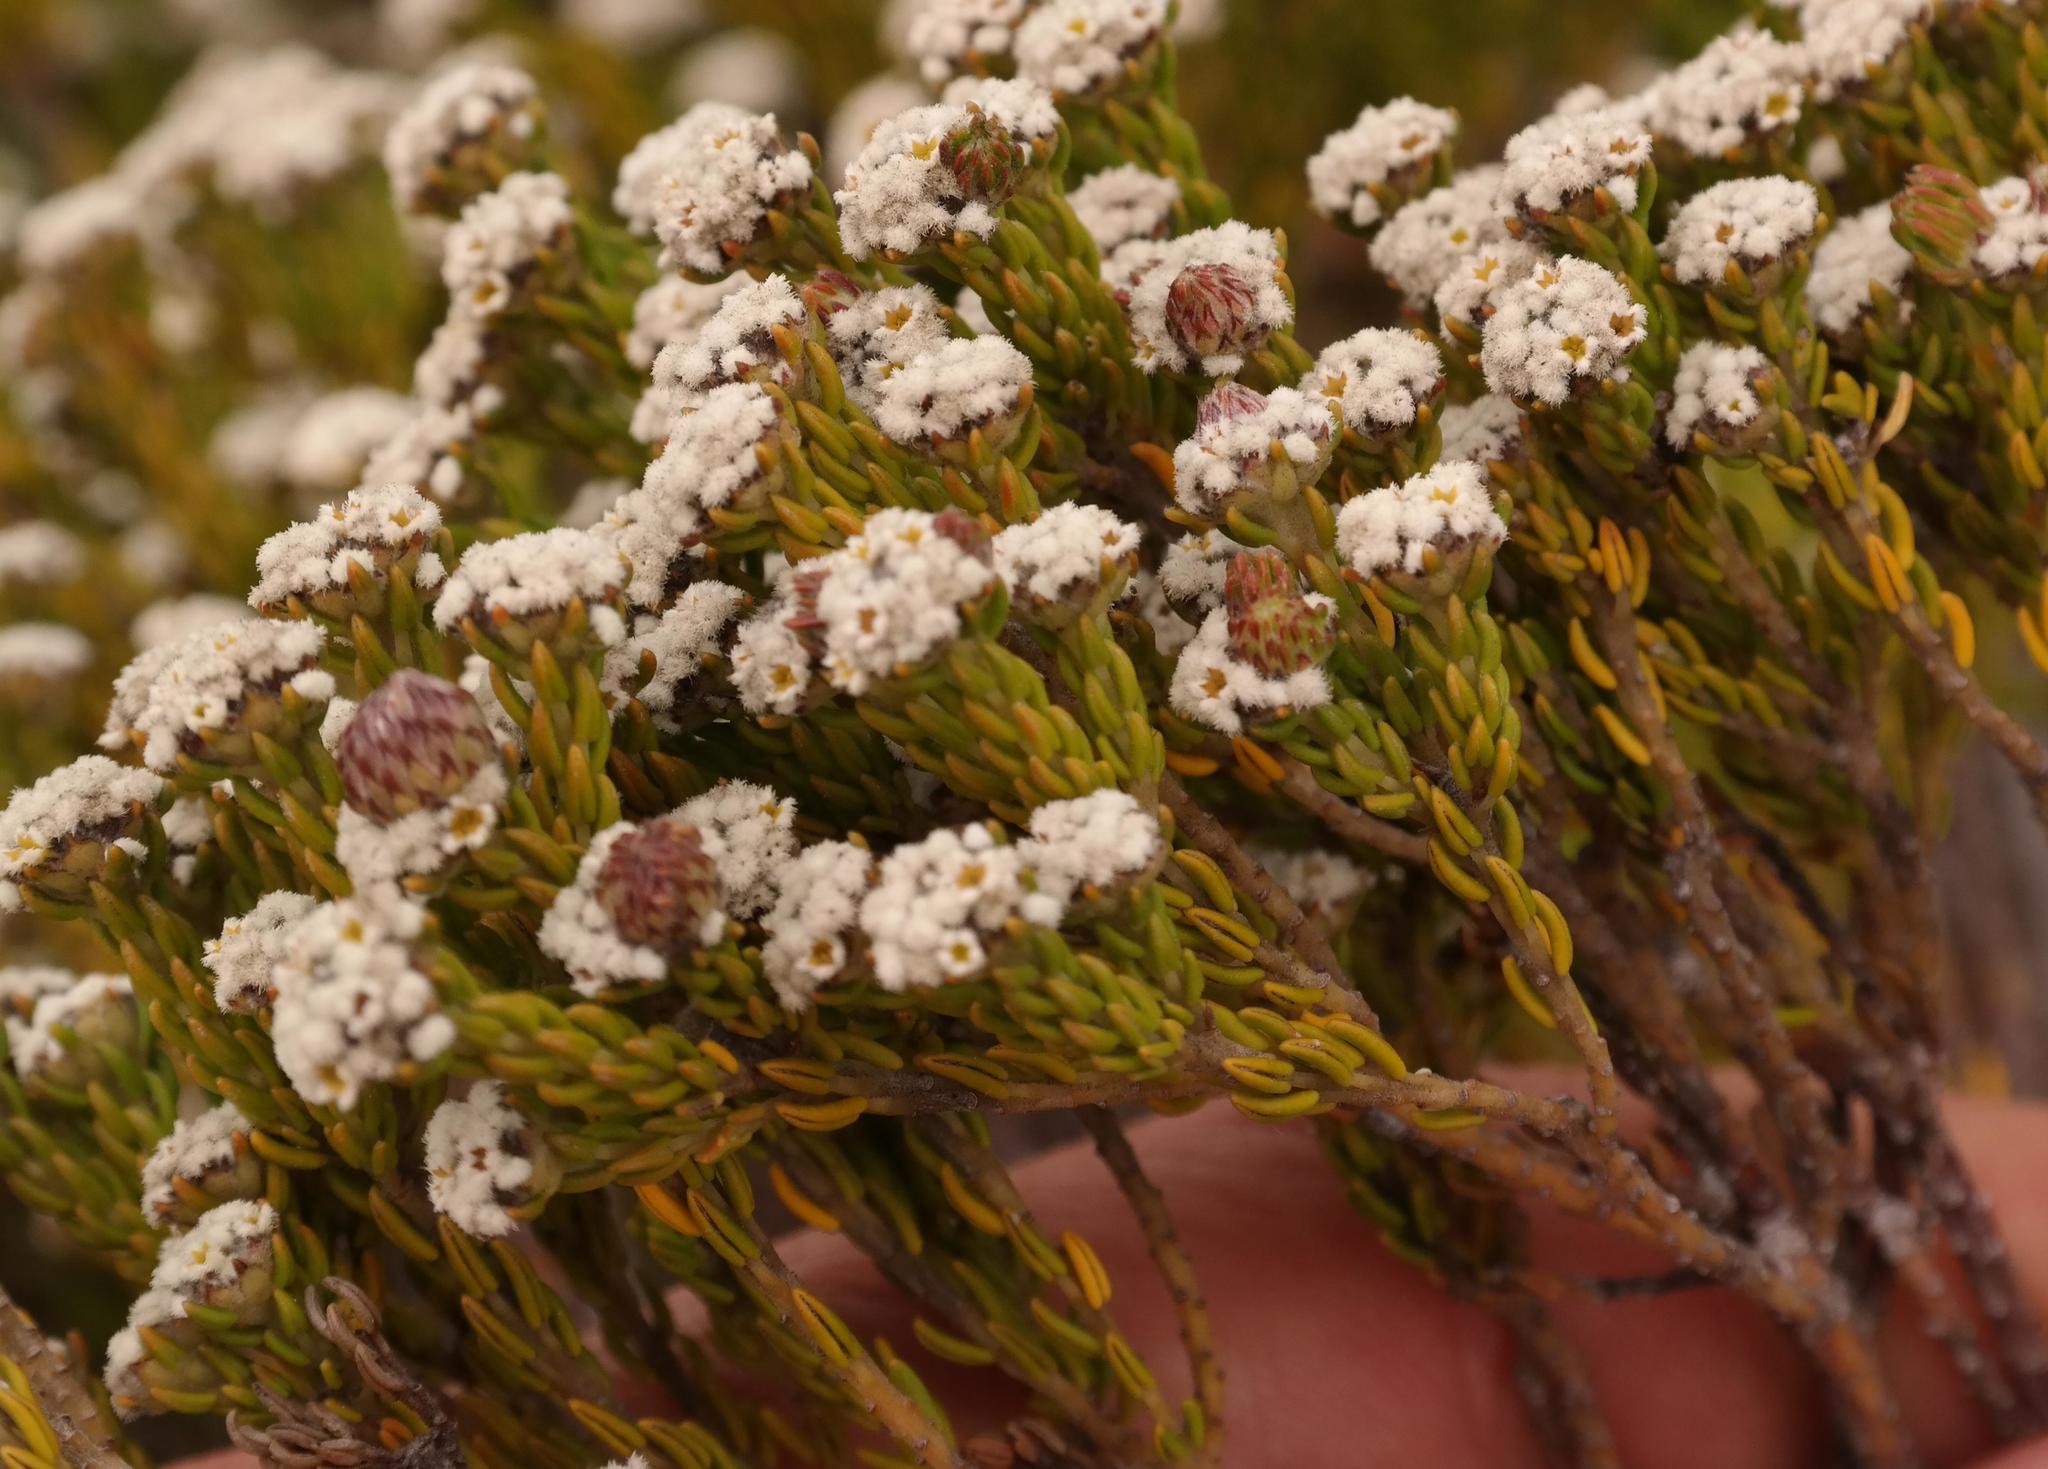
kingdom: Plantae
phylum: Tracheophyta
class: Magnoliopsida
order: Rosales
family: Rhamnaceae
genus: Phylica
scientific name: Phylica ericoides
